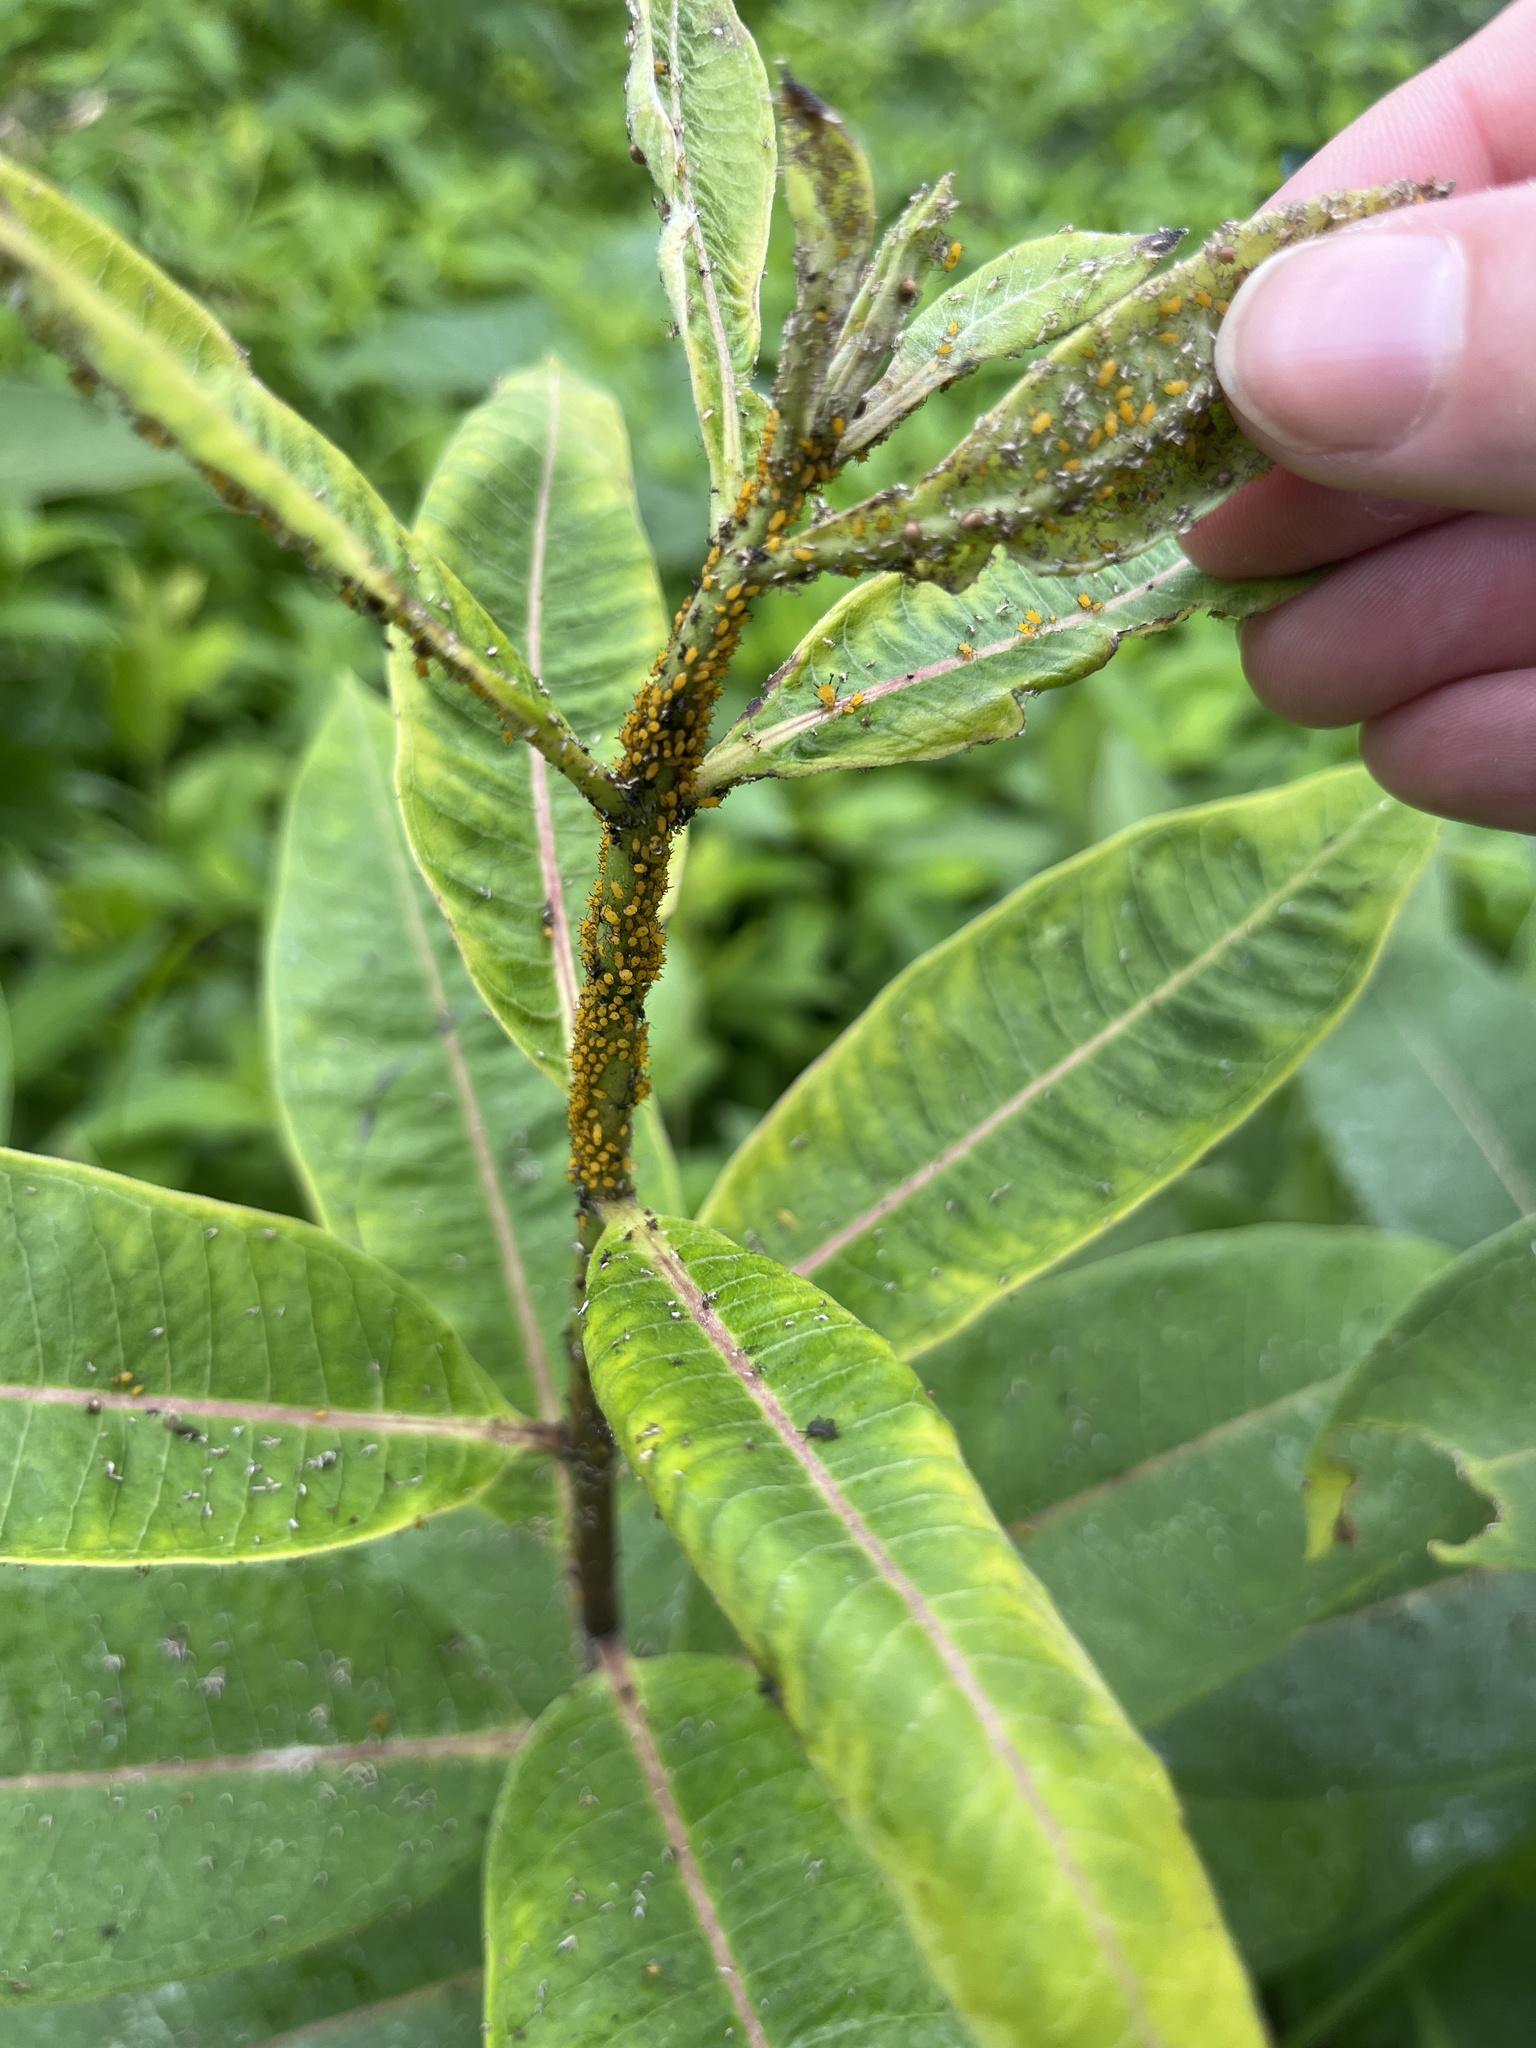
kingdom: Animalia
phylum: Arthropoda
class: Insecta
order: Hemiptera
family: Aphididae
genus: Aphis
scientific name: Aphis nerii
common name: Oleander aphid
